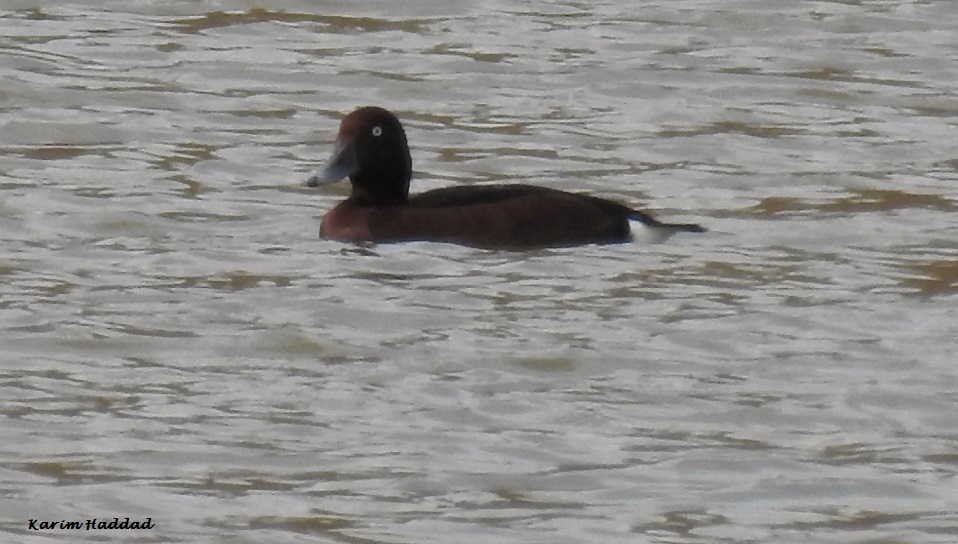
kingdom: Animalia
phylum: Chordata
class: Aves
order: Anseriformes
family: Anatidae
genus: Aythya
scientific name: Aythya nyroca
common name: Ferruginous duck
